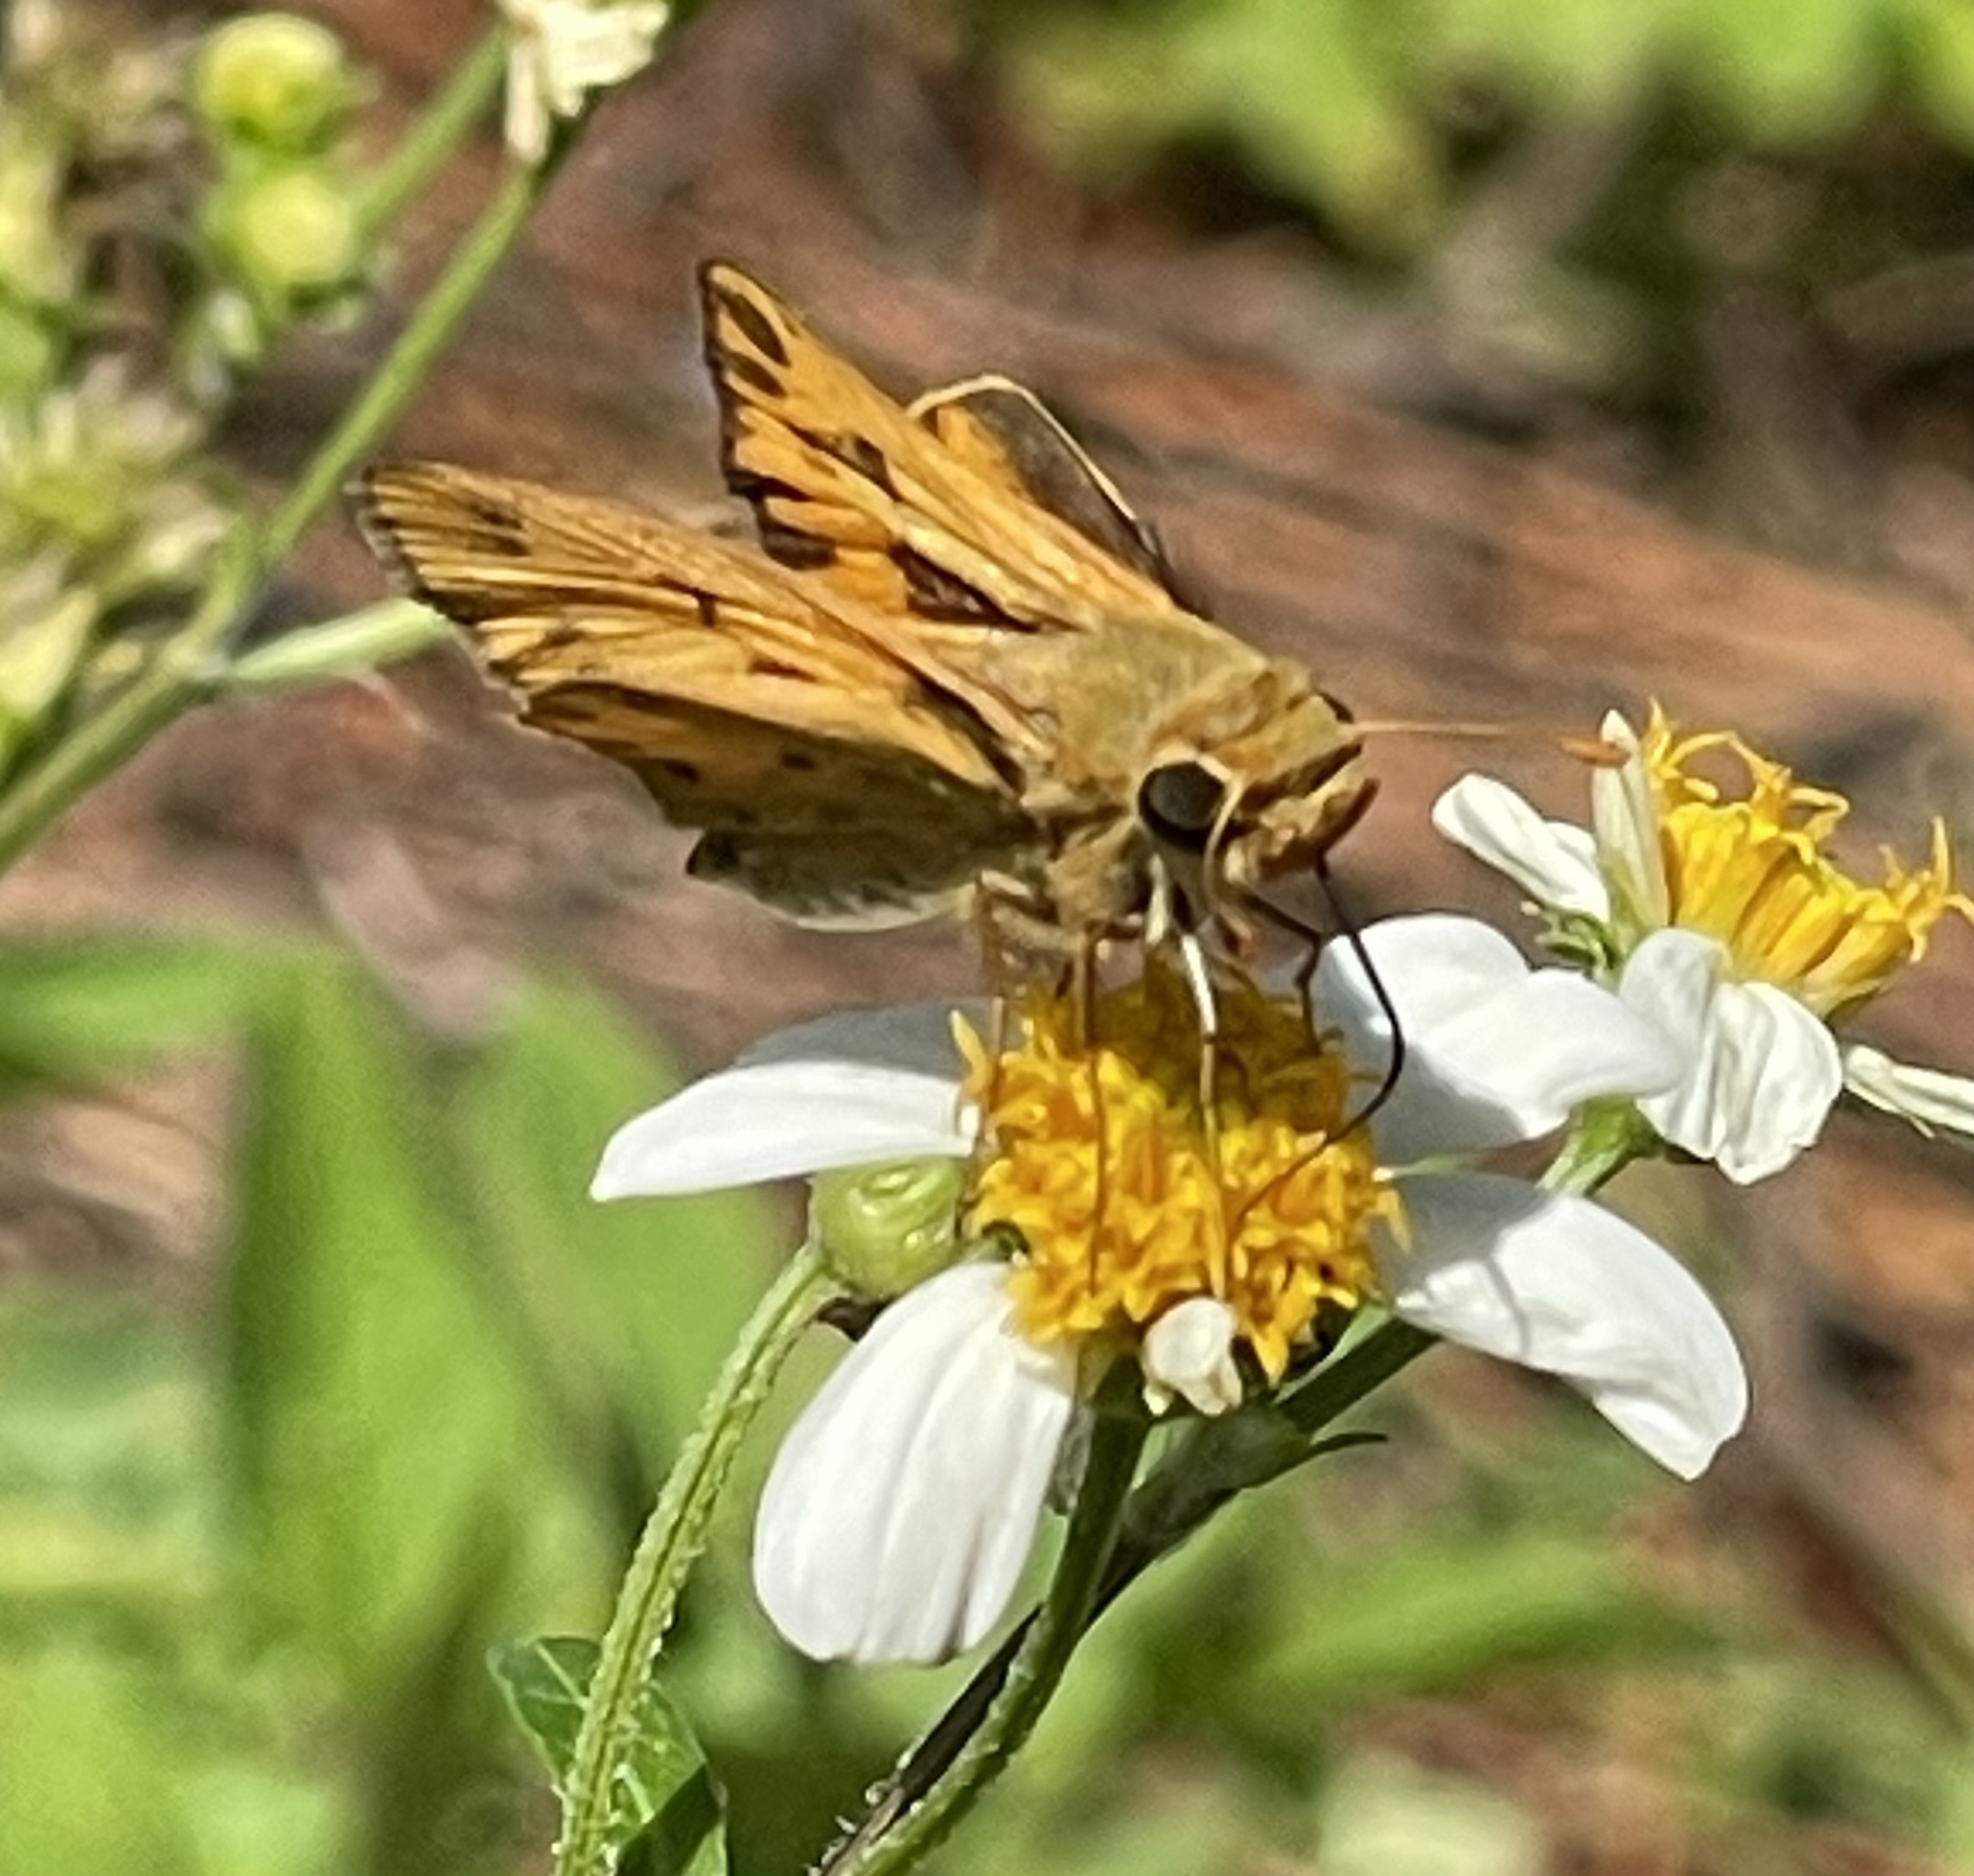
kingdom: Animalia
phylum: Arthropoda
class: Insecta
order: Lepidoptera
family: Hesperiidae
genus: Hylephila
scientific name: Hylephila phyleus
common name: Fiery skipper
